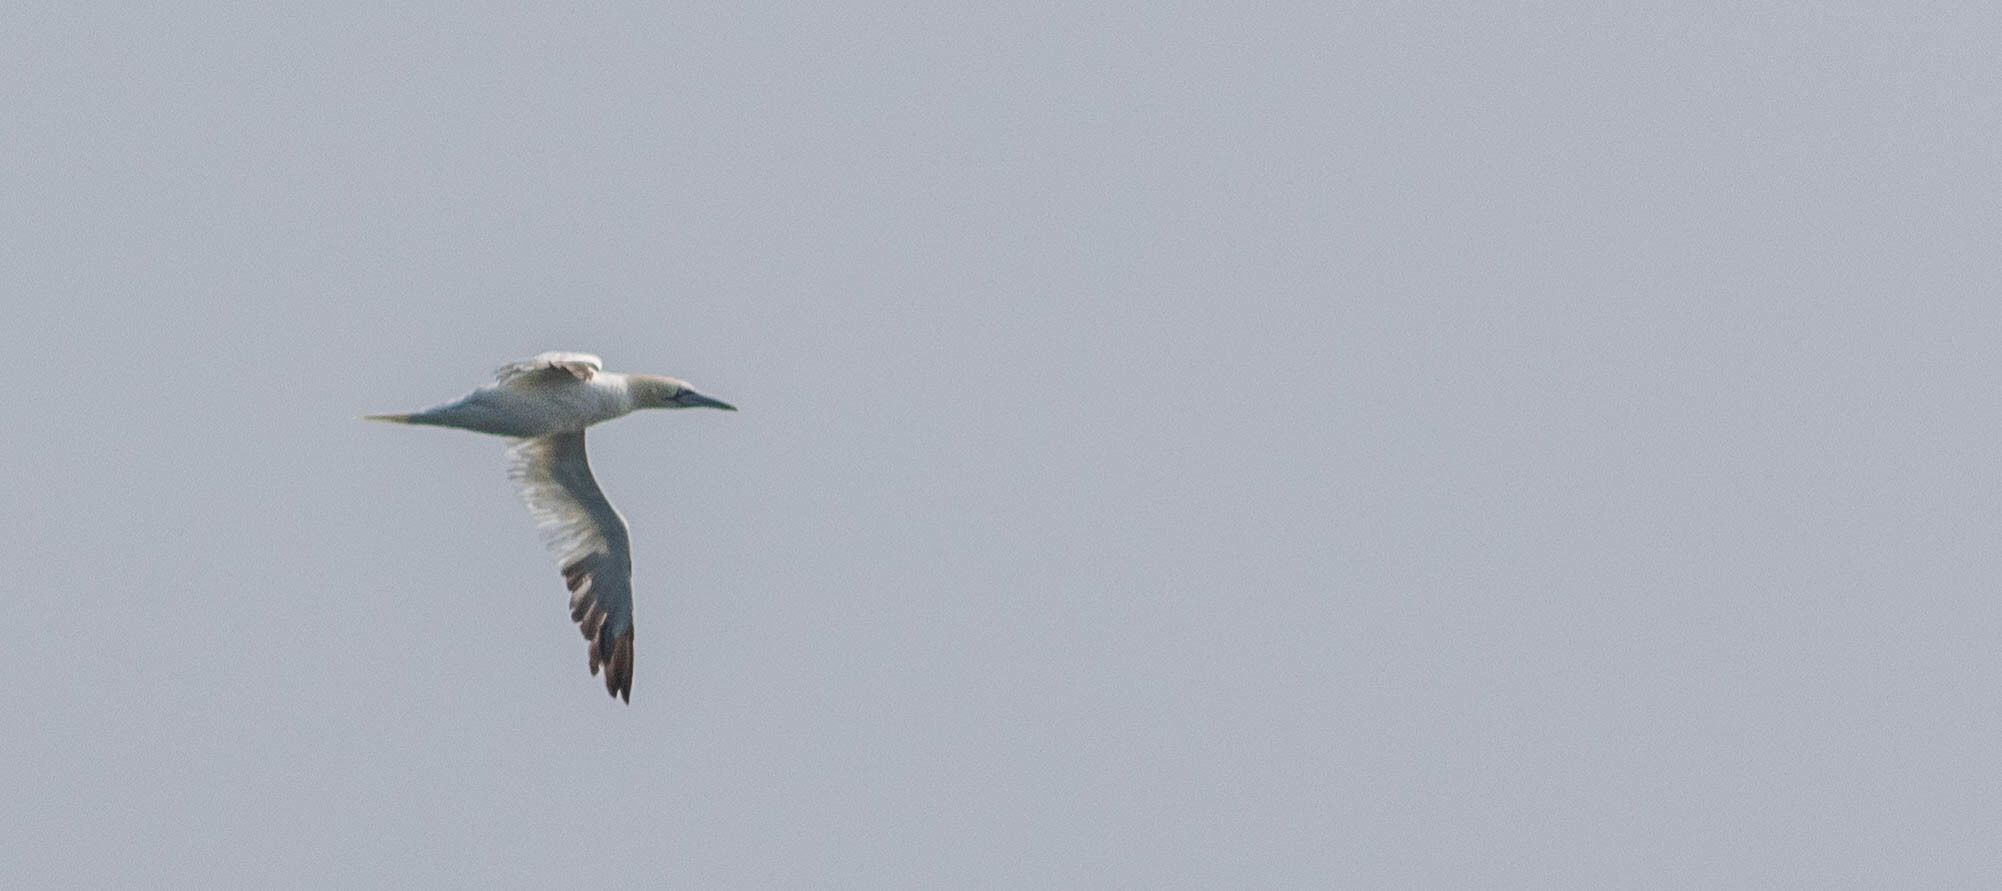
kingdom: Animalia
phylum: Chordata
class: Aves
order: Suliformes
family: Sulidae
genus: Morus
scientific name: Morus bassanus
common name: Northern gannet
